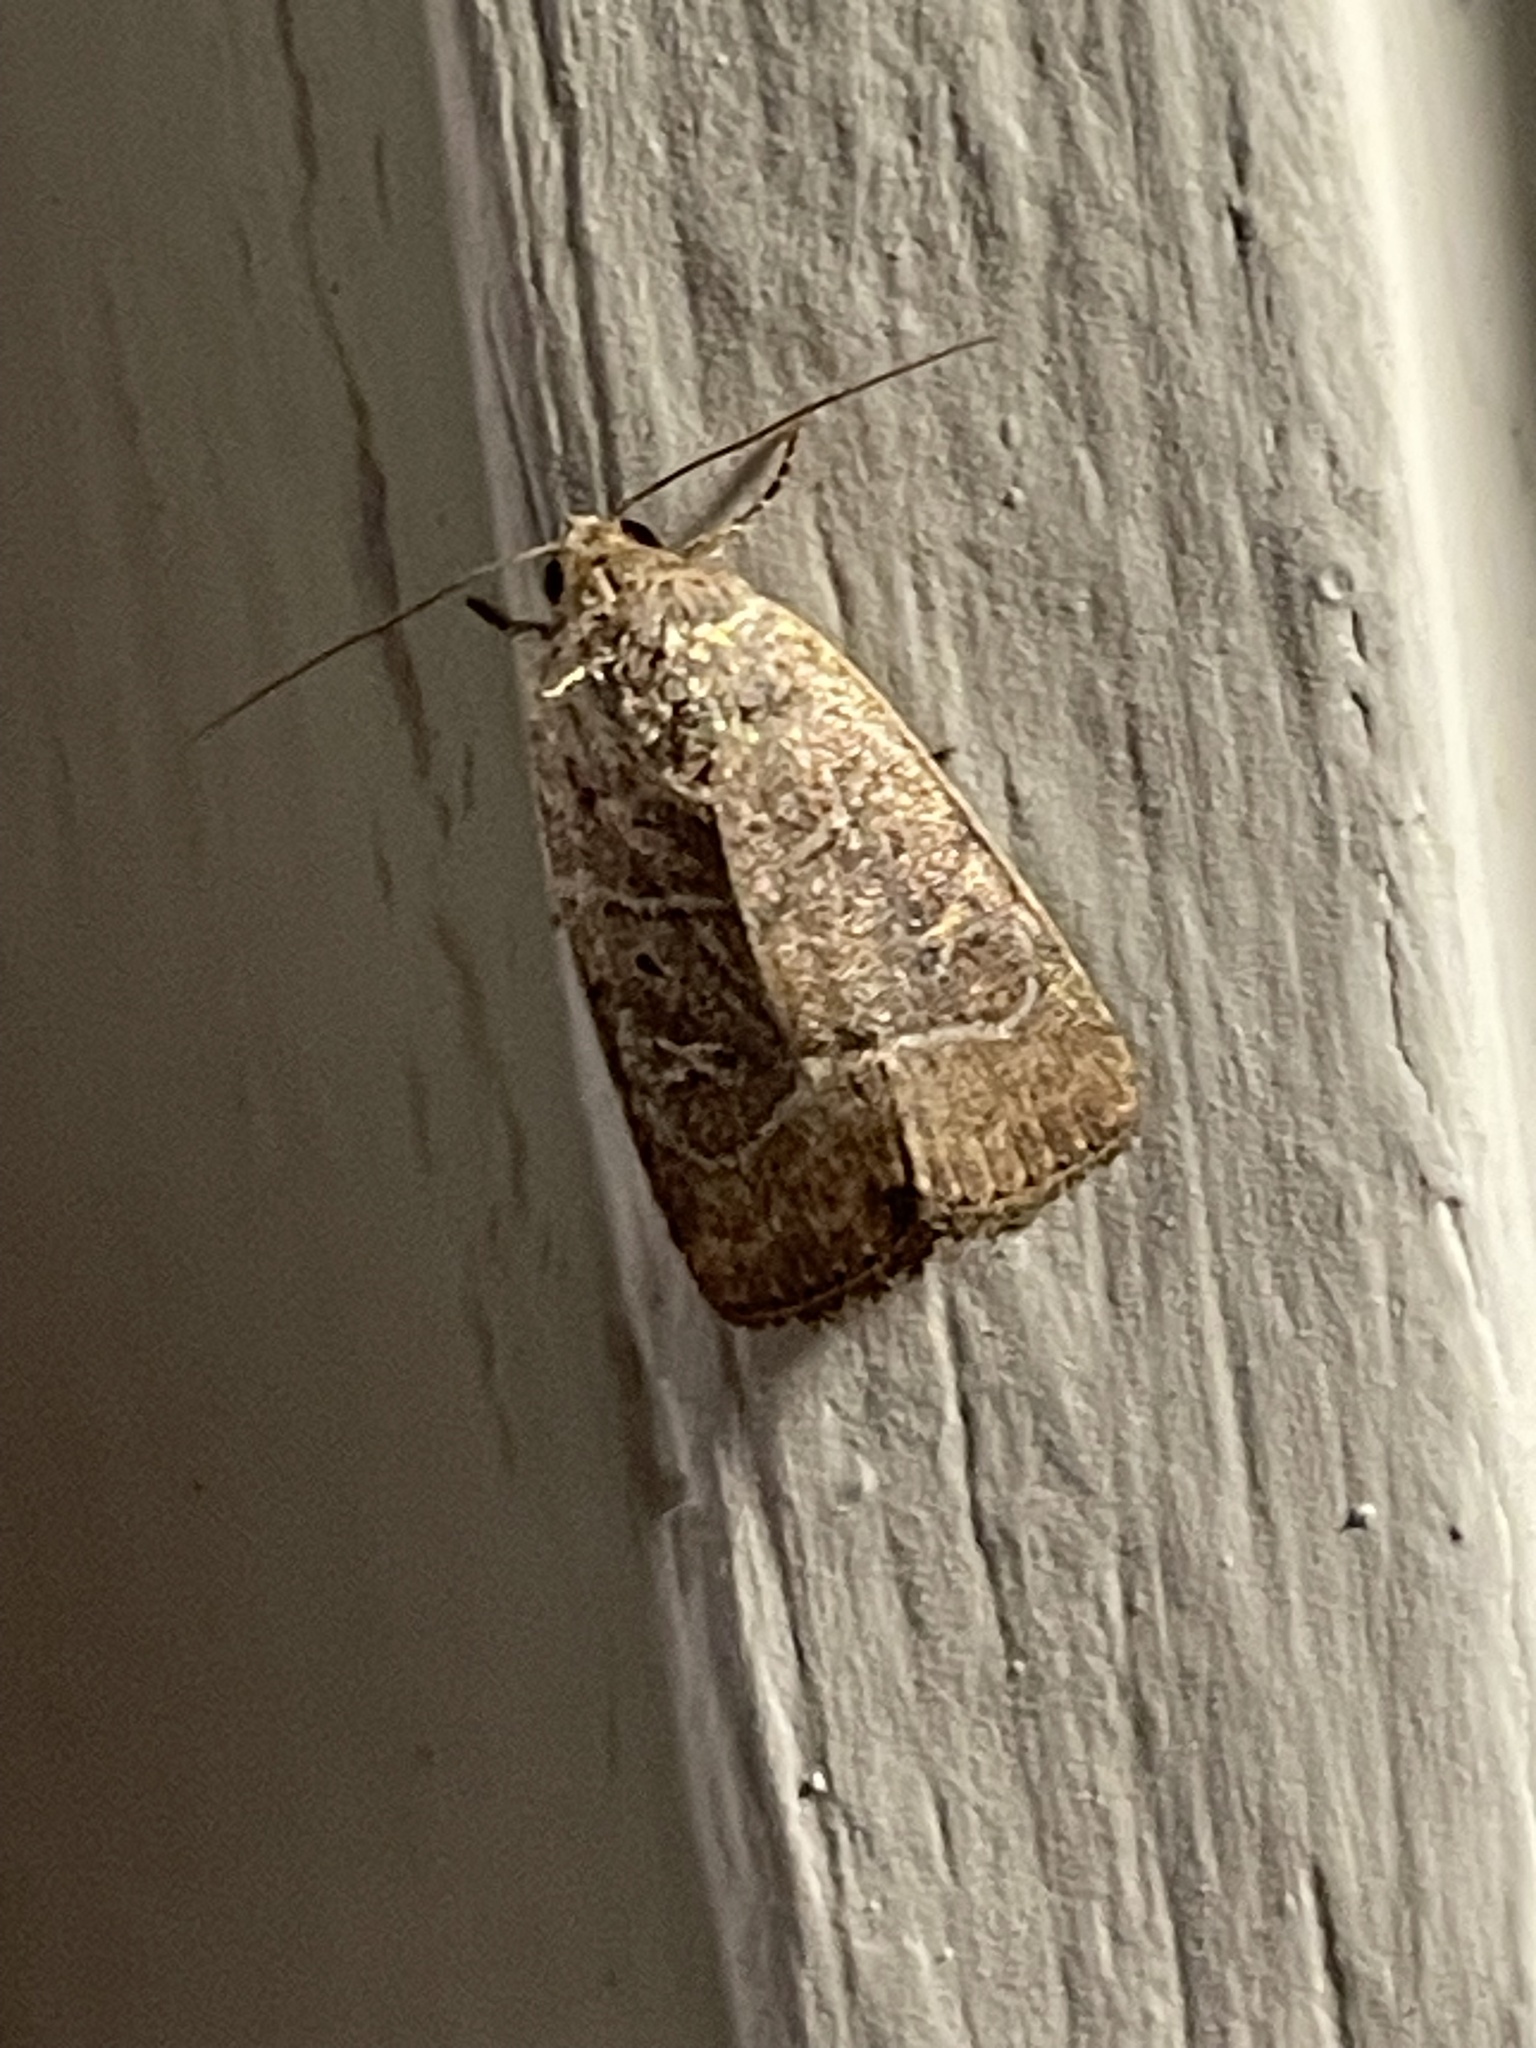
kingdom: Animalia
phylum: Arthropoda
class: Insecta
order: Lepidoptera
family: Noctuidae
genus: Elaphria
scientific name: Elaphria grata
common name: Grateful midget moth
